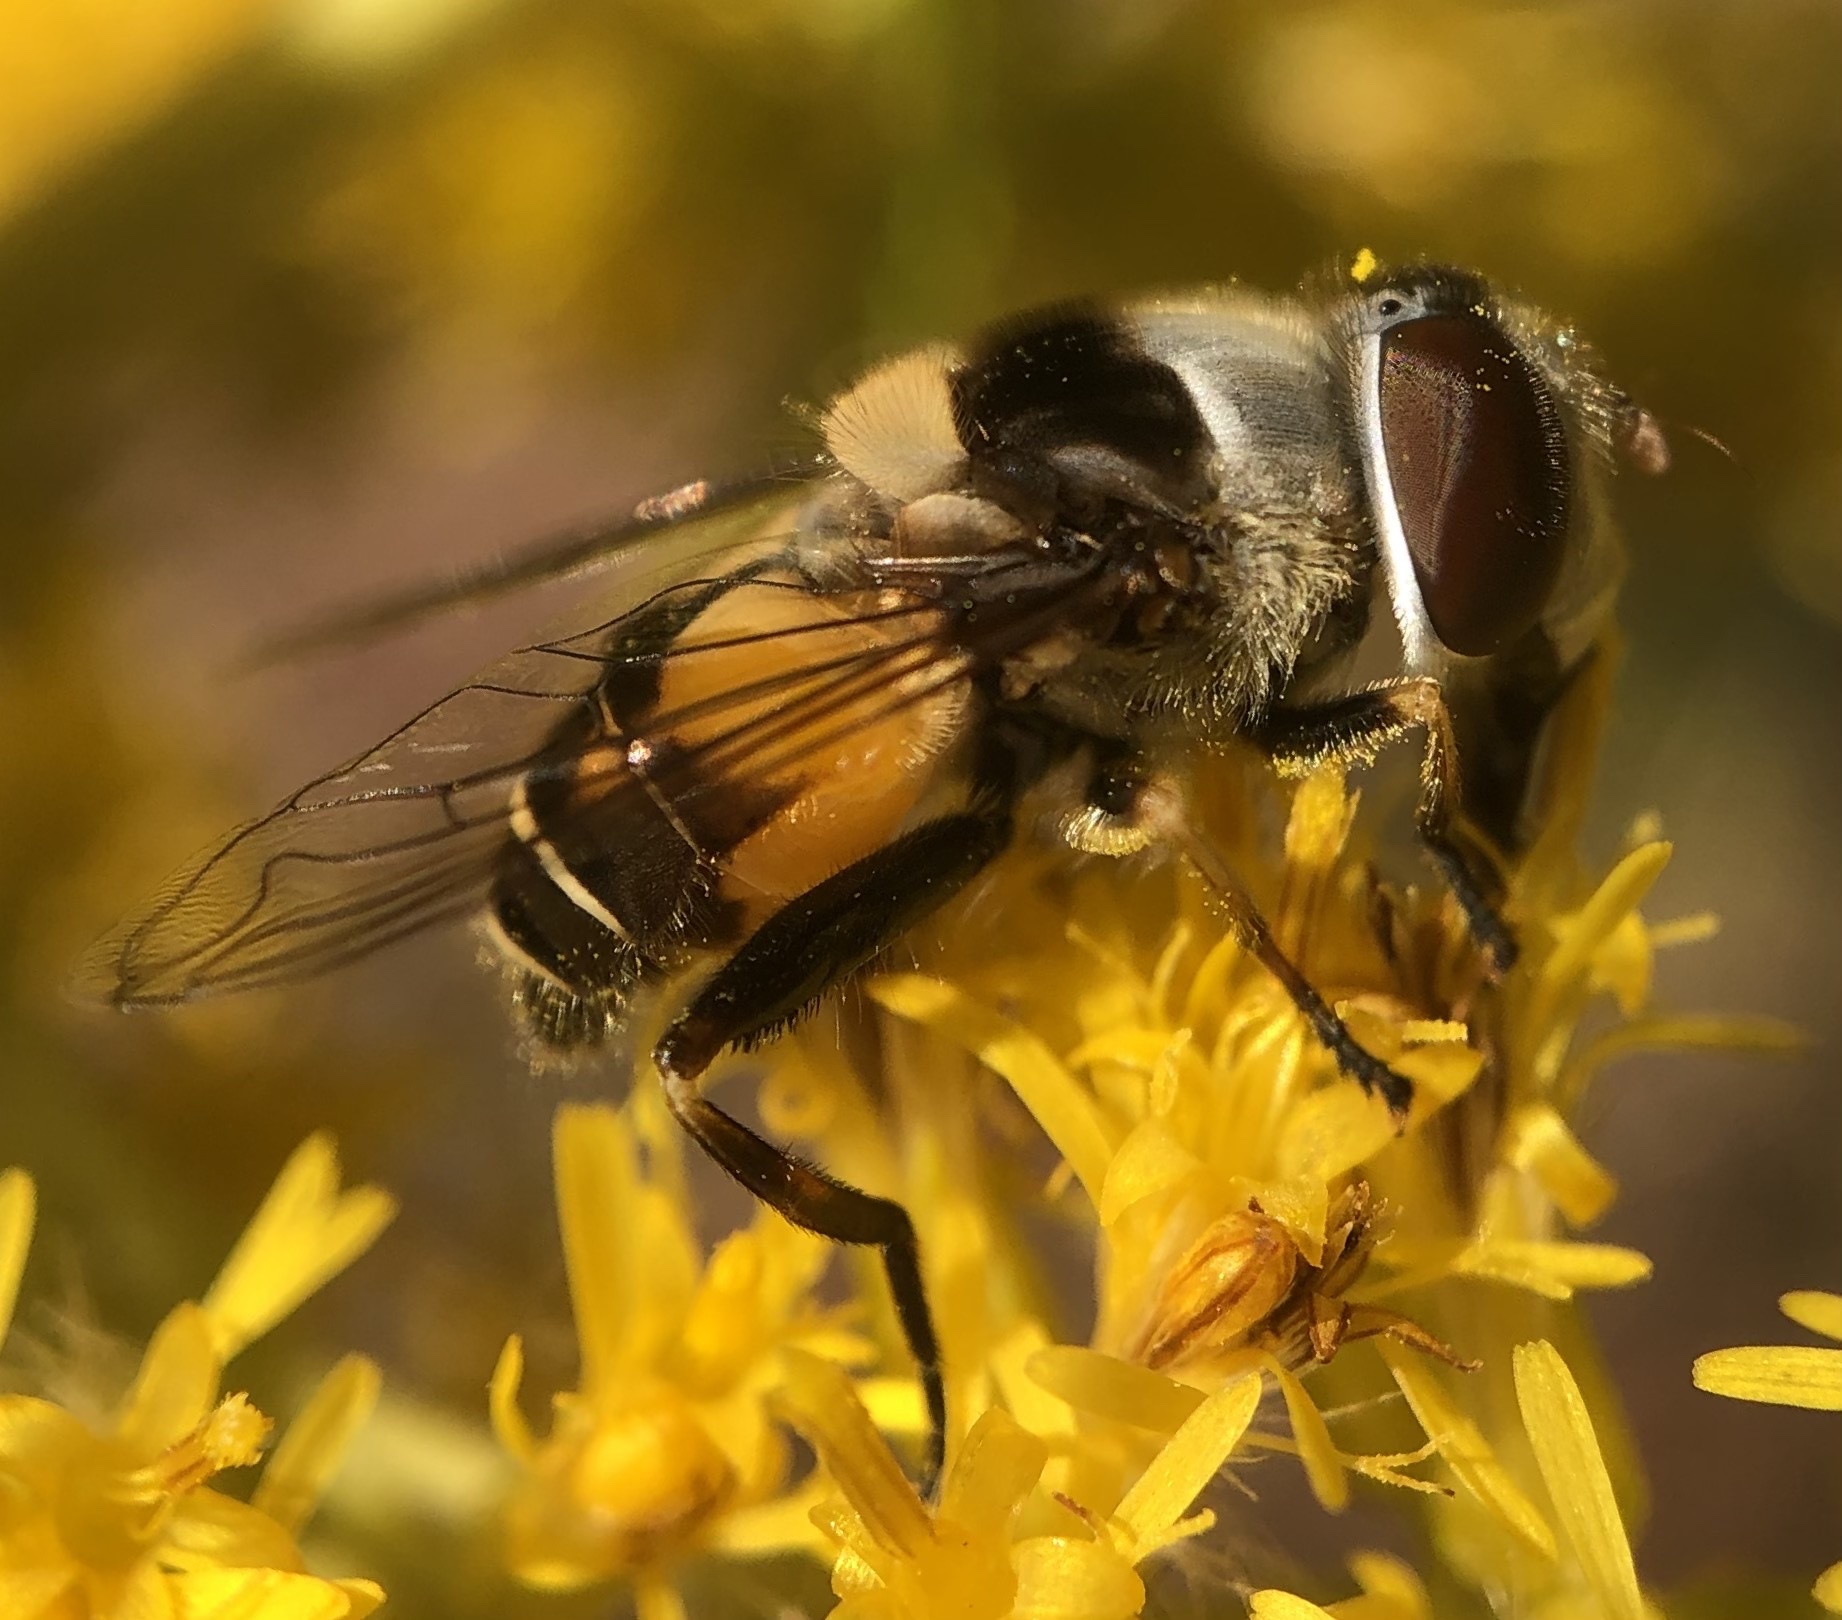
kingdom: Animalia
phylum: Arthropoda
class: Insecta
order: Diptera
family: Syrphidae
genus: Palpada
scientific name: Palpada pusilla
